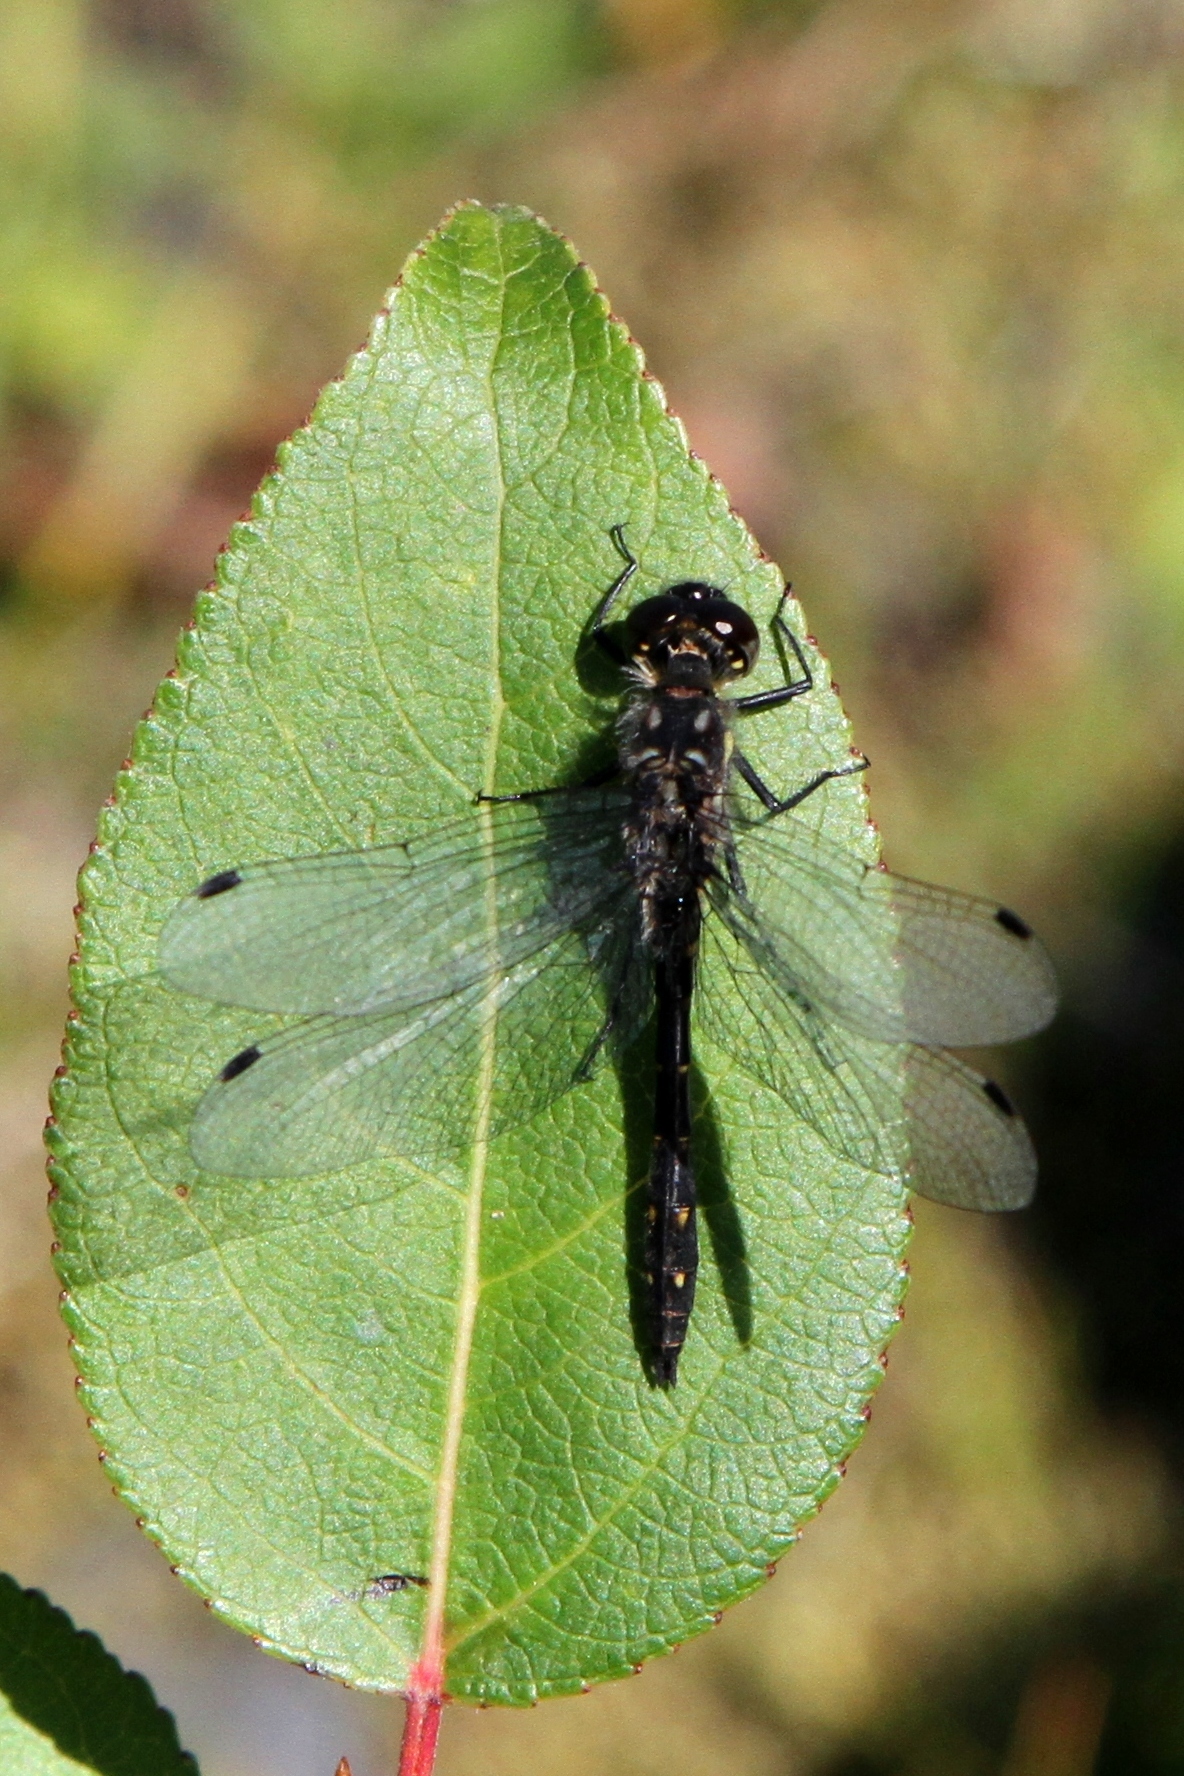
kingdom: Animalia
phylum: Arthropoda
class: Insecta
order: Odonata
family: Libellulidae
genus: Sympetrum
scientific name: Sympetrum danae
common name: Black darter
